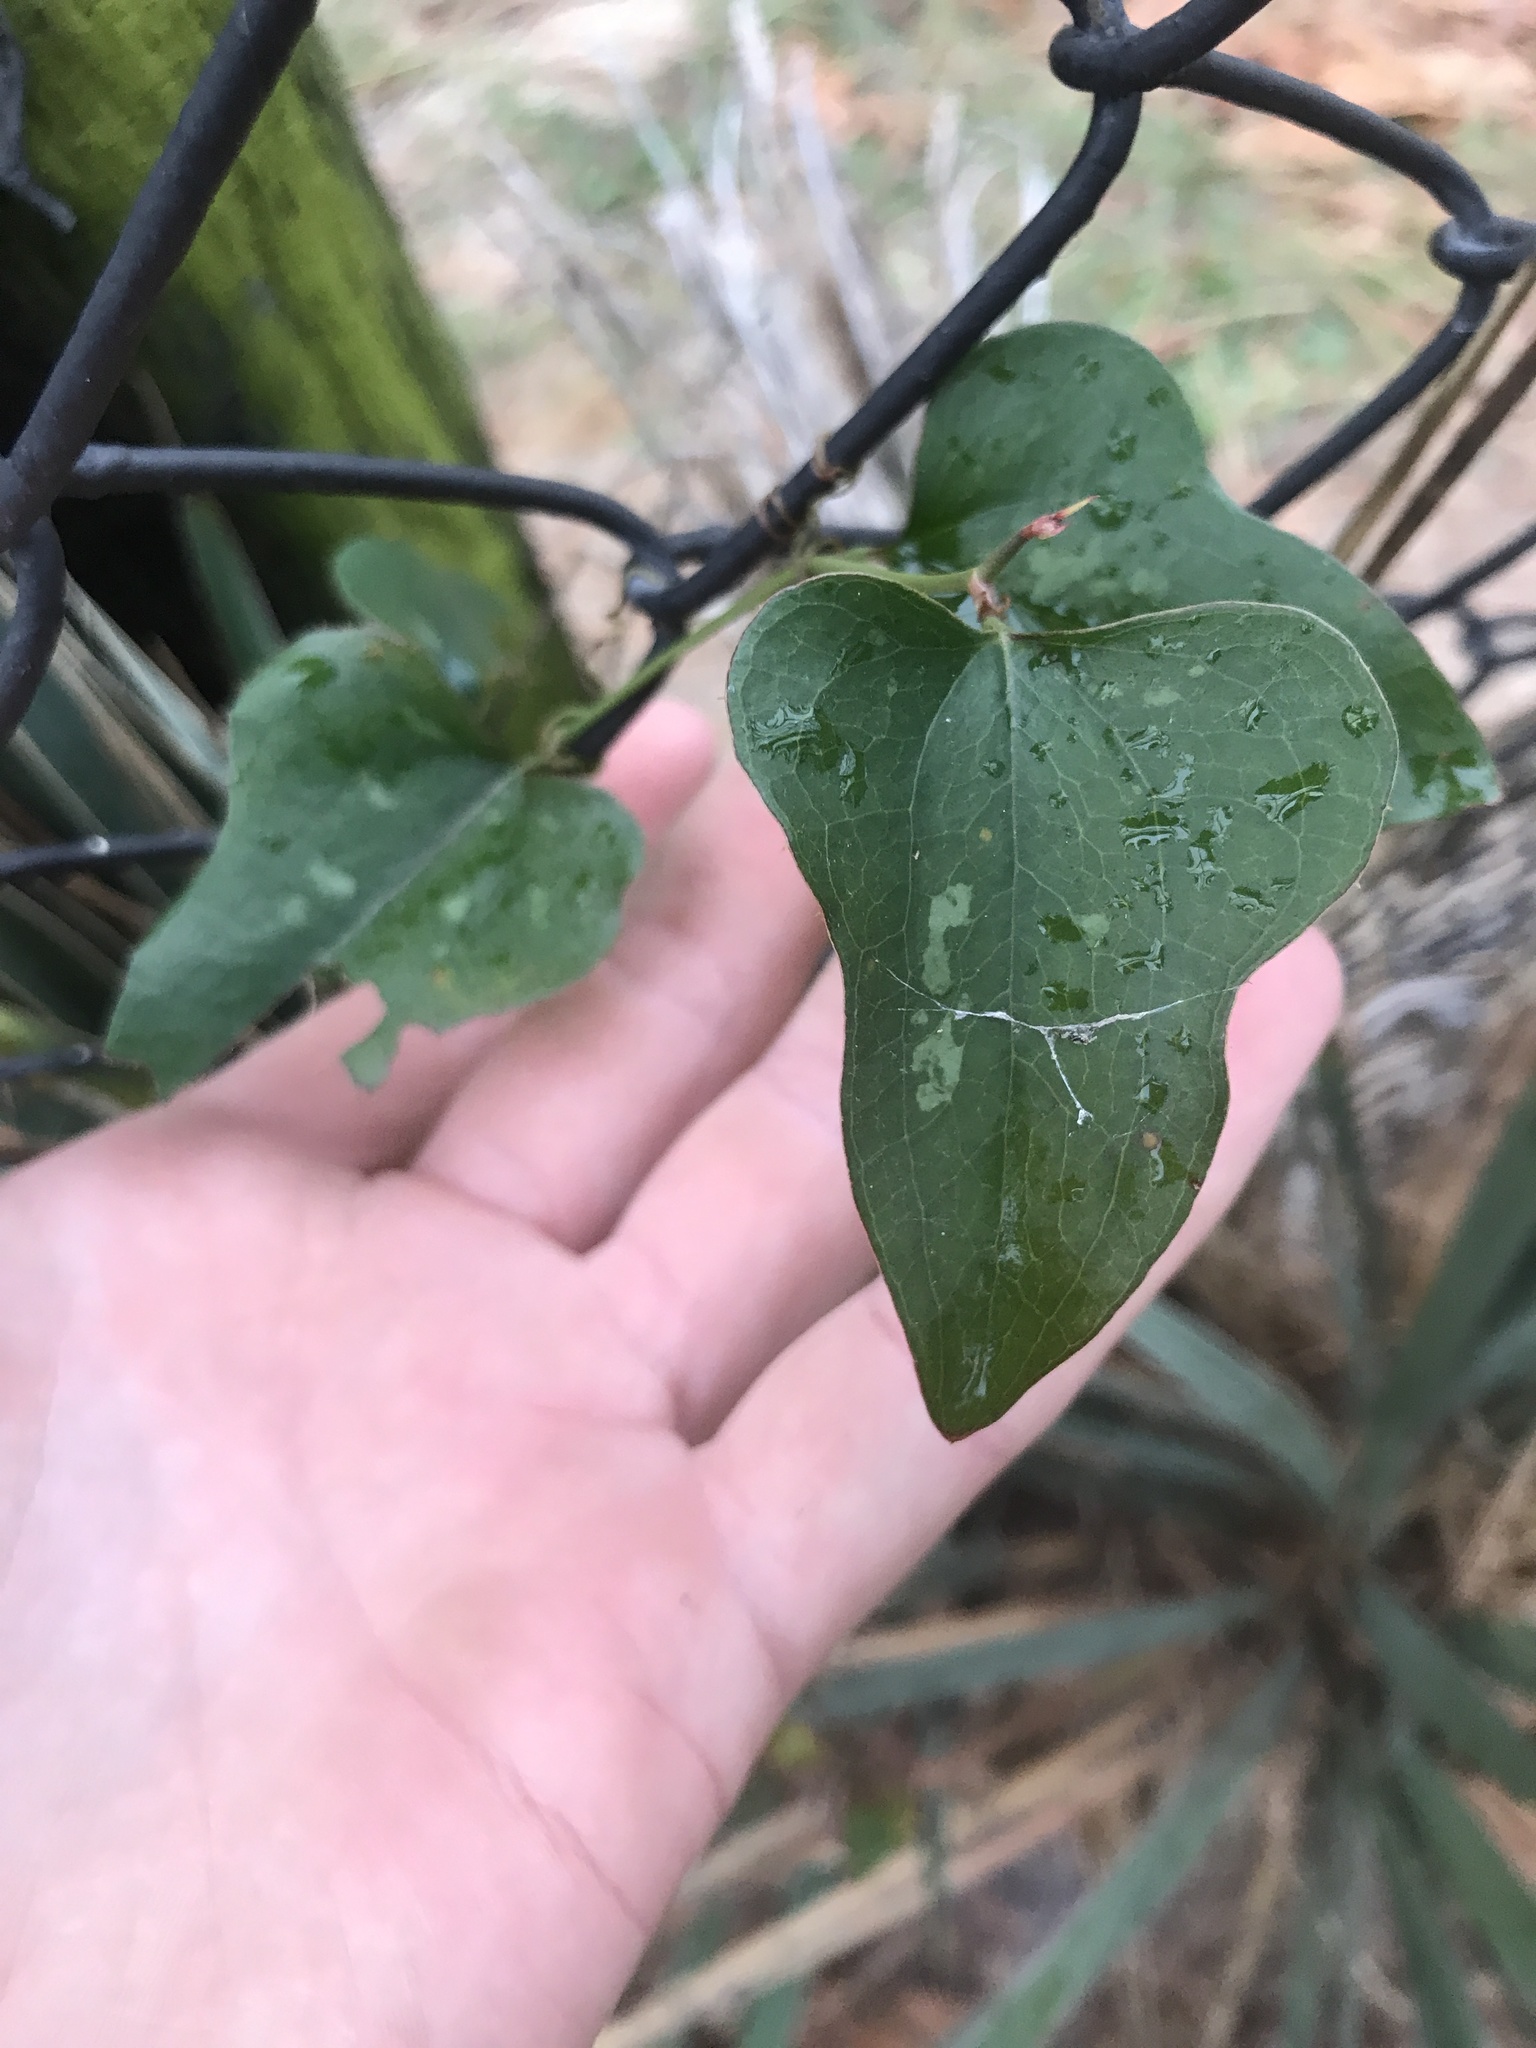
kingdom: Plantae
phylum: Tracheophyta
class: Liliopsida
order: Liliales
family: Smilacaceae
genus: Smilax
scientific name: Smilax bona-nox
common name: Catbrier
